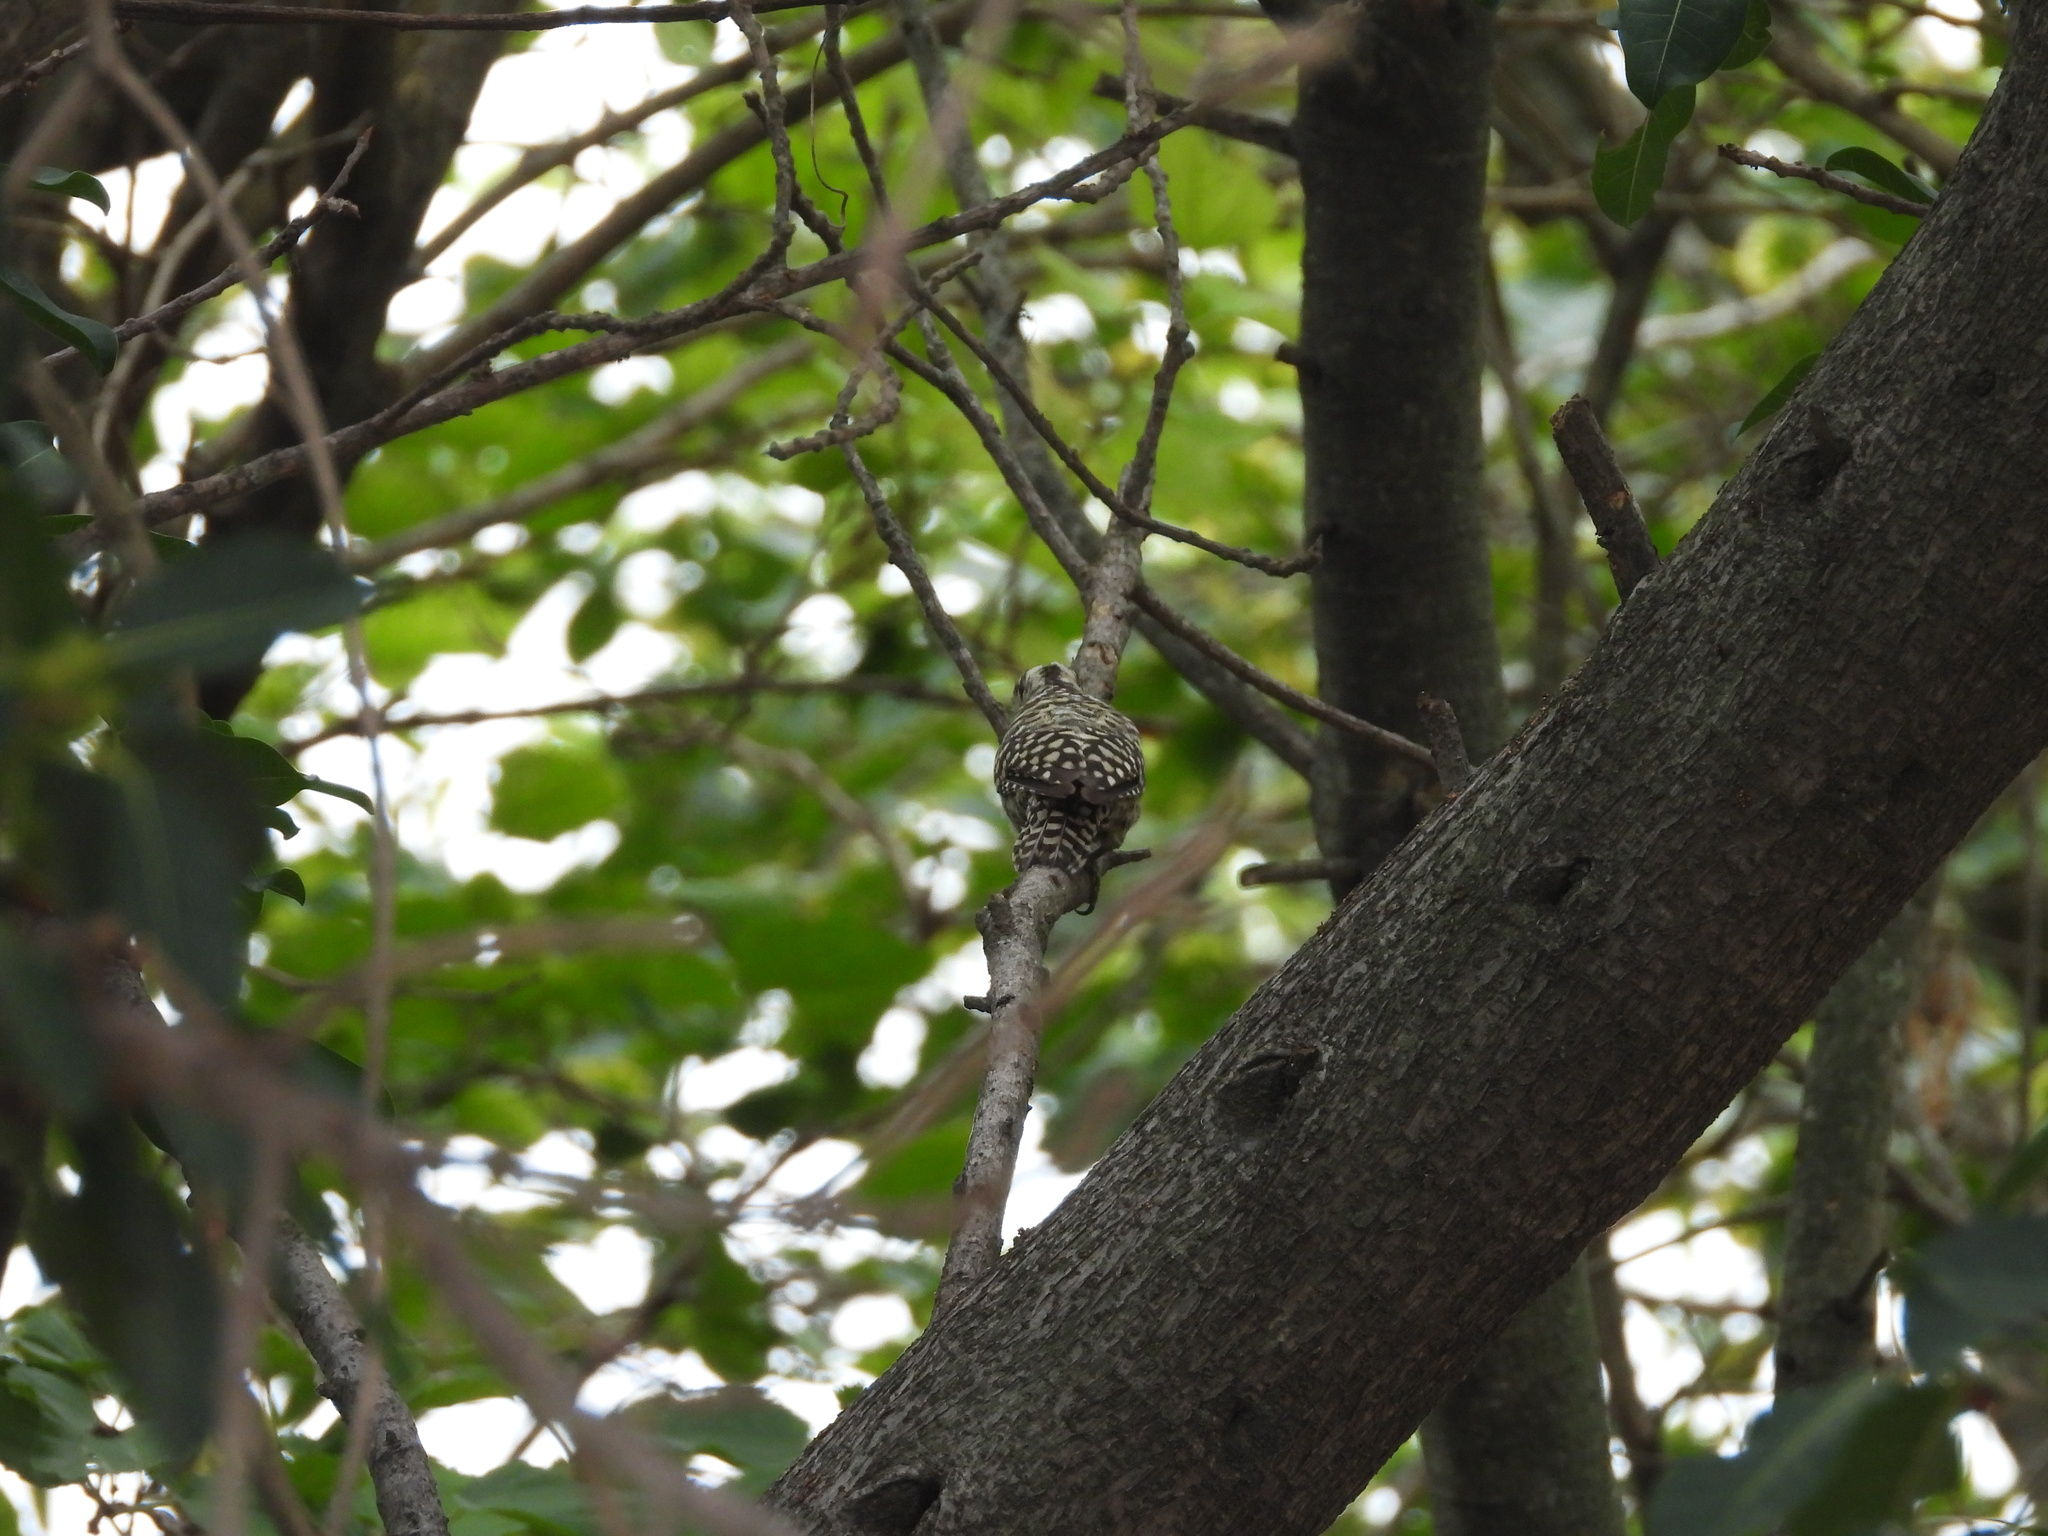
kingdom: Animalia
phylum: Chordata
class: Aves
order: Piciformes
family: Picidae
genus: Veniliornis
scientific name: Veniliornis mixtus
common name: Checkered woodpecker
